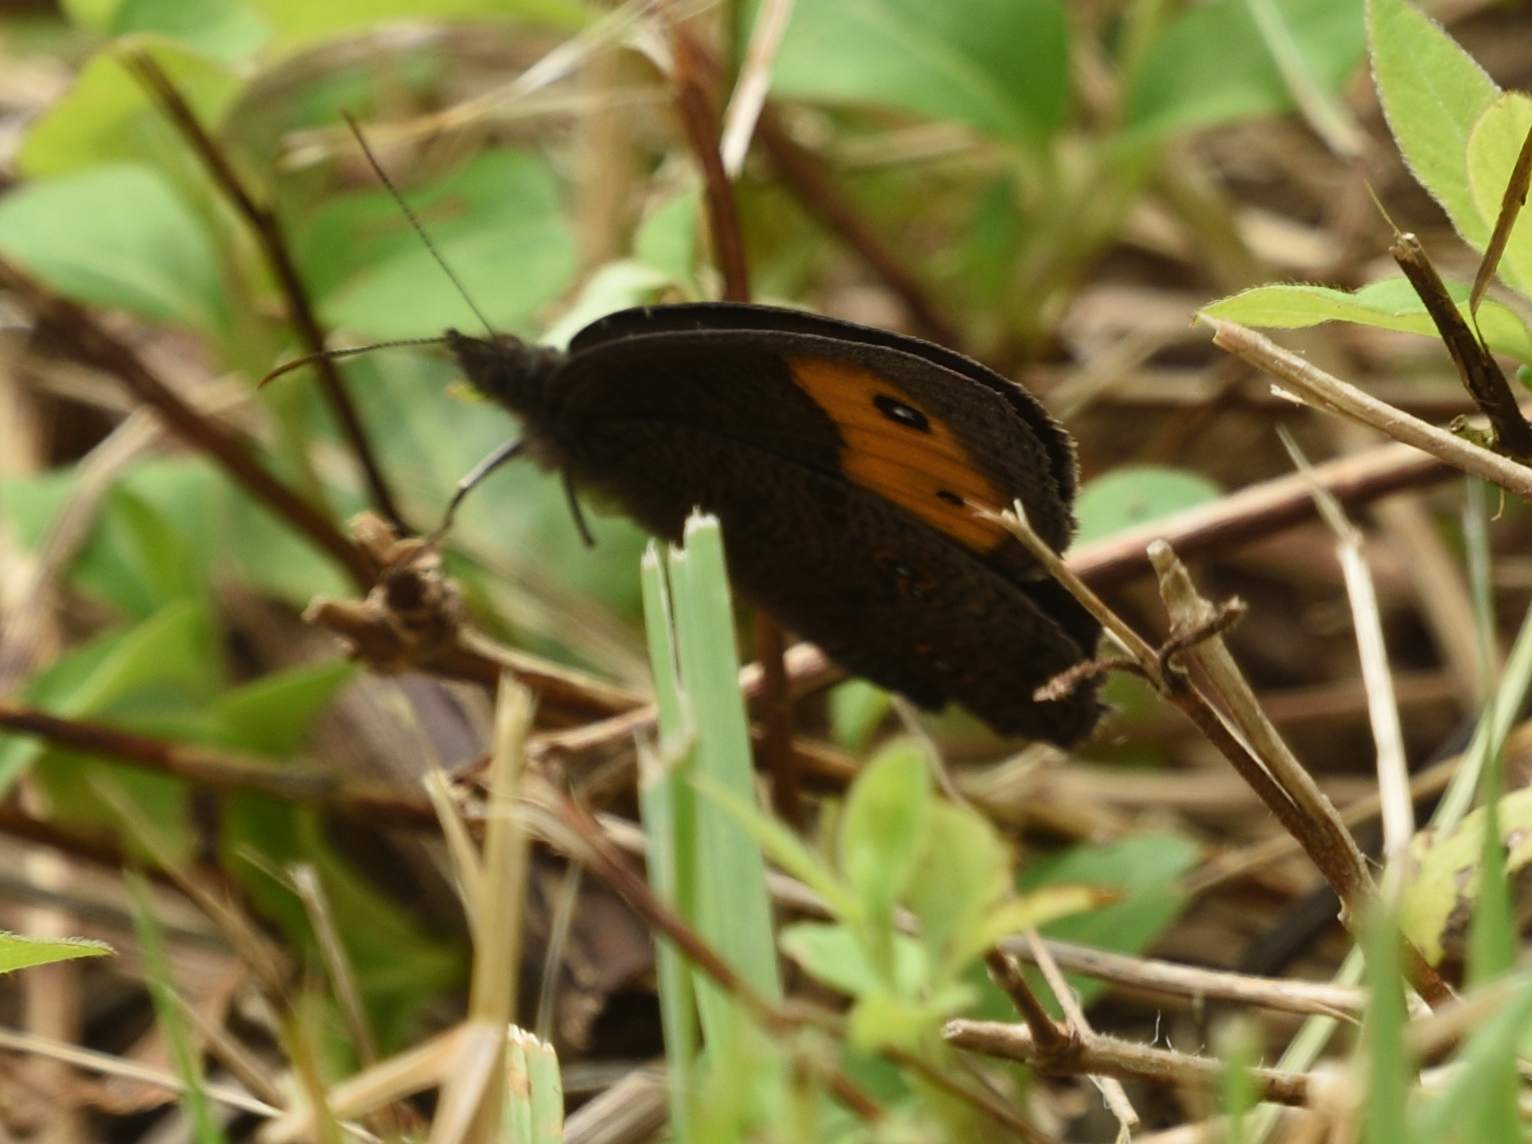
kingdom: Animalia
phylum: Arthropoda
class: Insecta
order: Lepidoptera
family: Nymphalidae
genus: Cercyonis
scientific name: Cercyonis pegala
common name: Common wood-nymph
